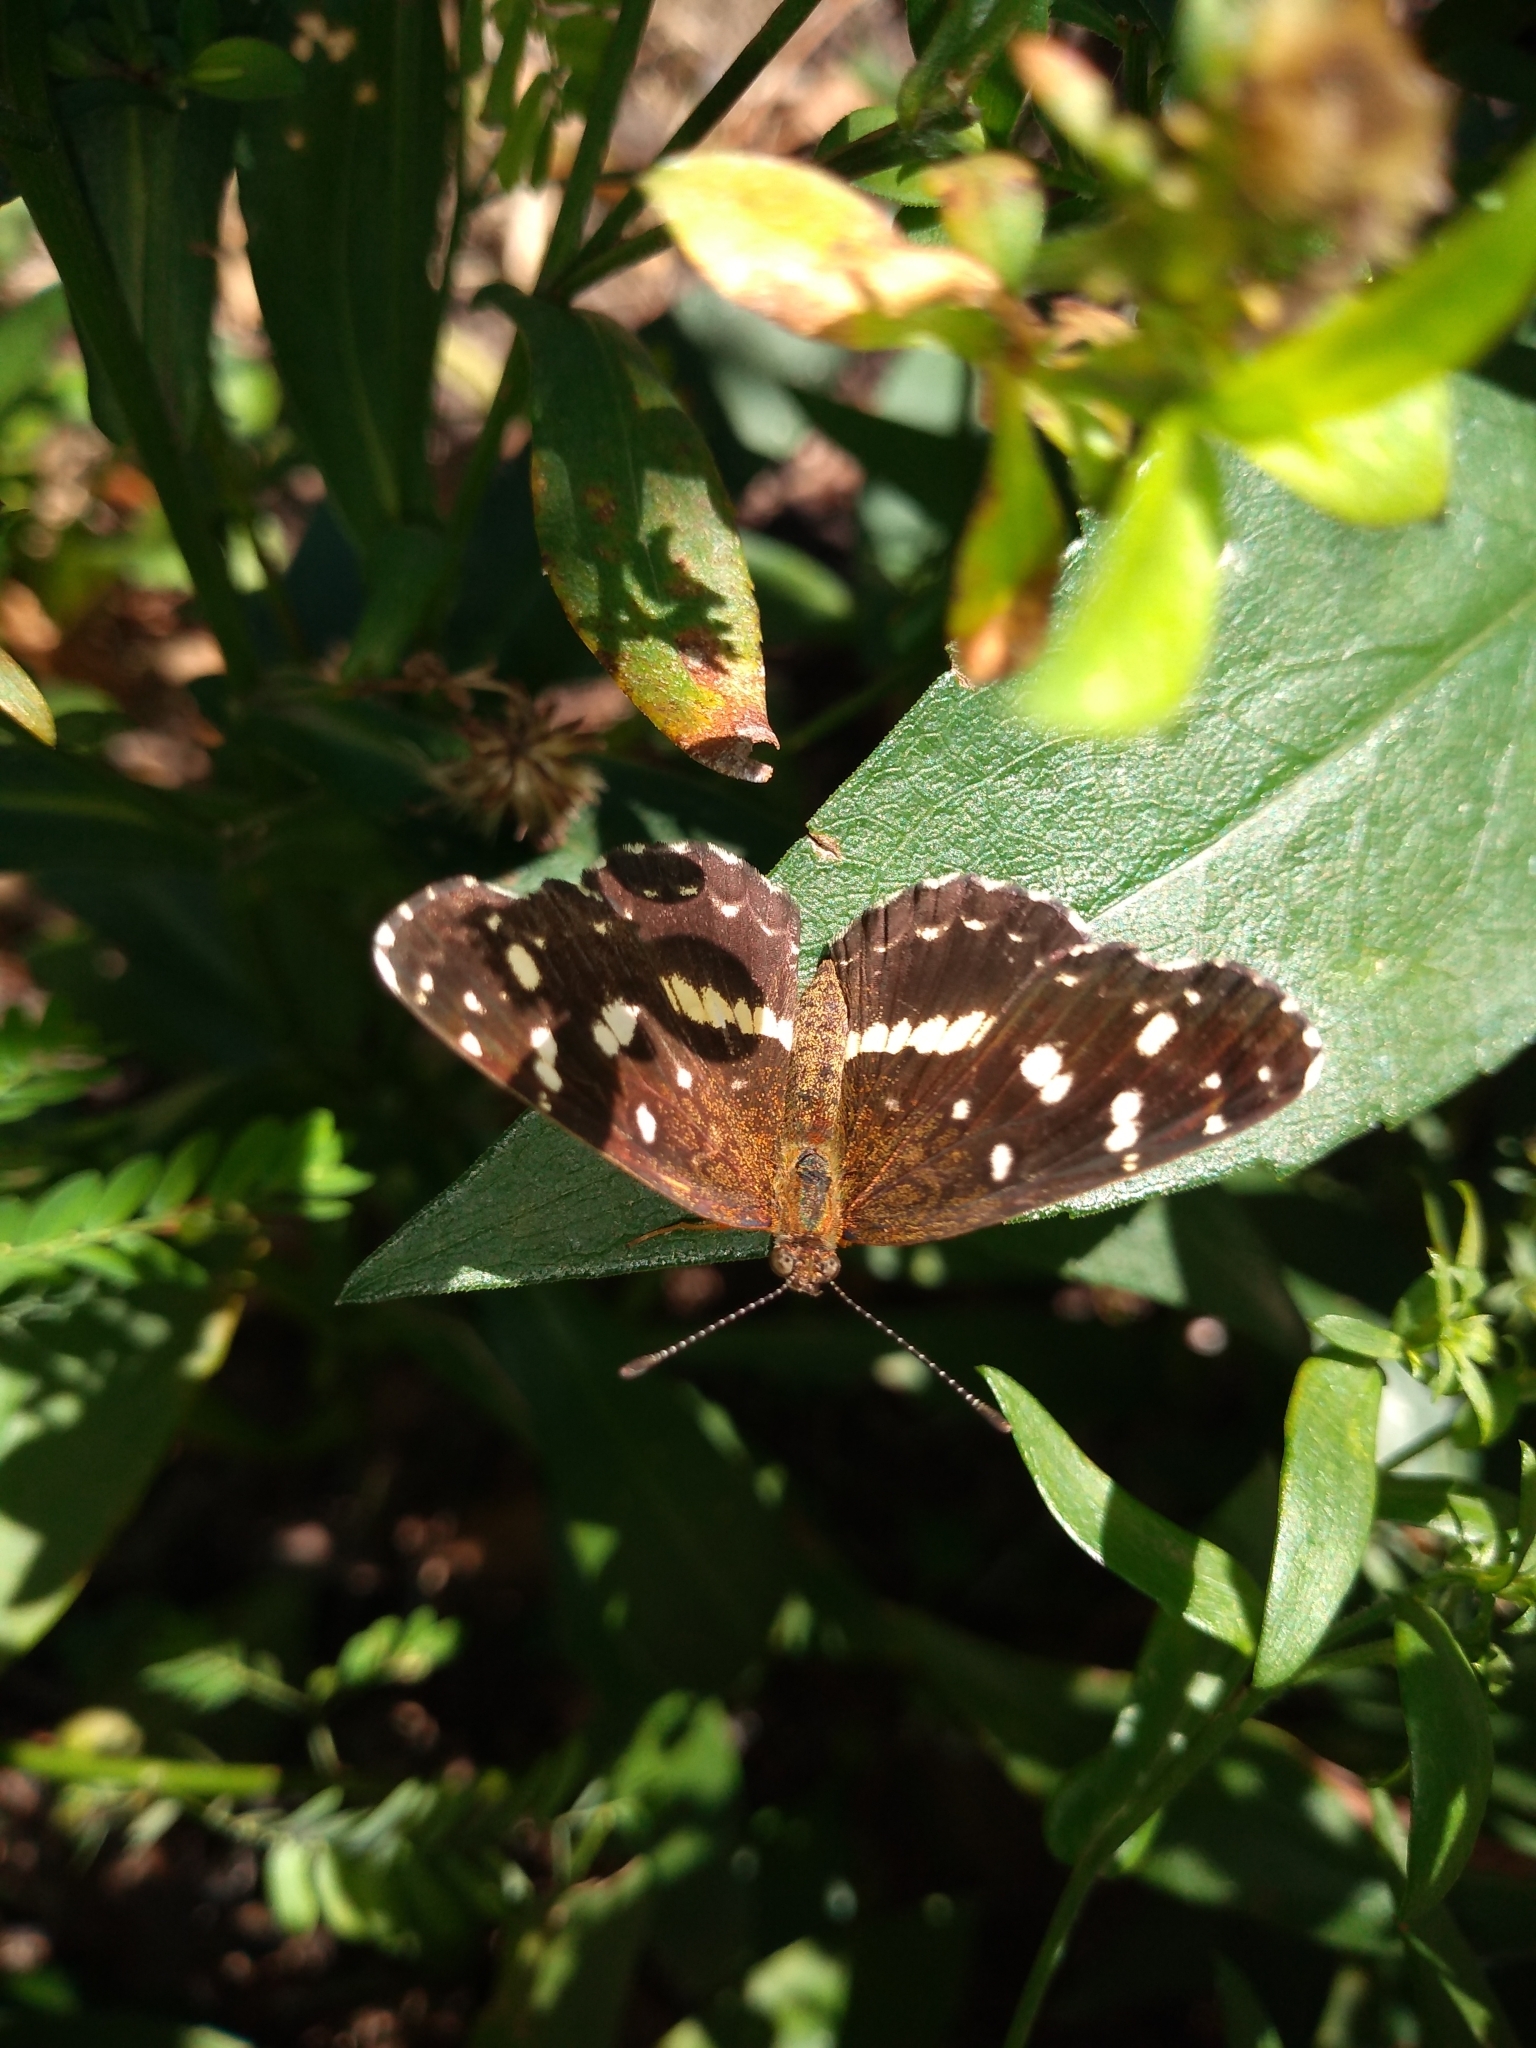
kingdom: Animalia
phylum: Arthropoda
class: Insecta
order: Lepidoptera
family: Nymphalidae
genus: Ortilia
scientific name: Ortilia ithra
